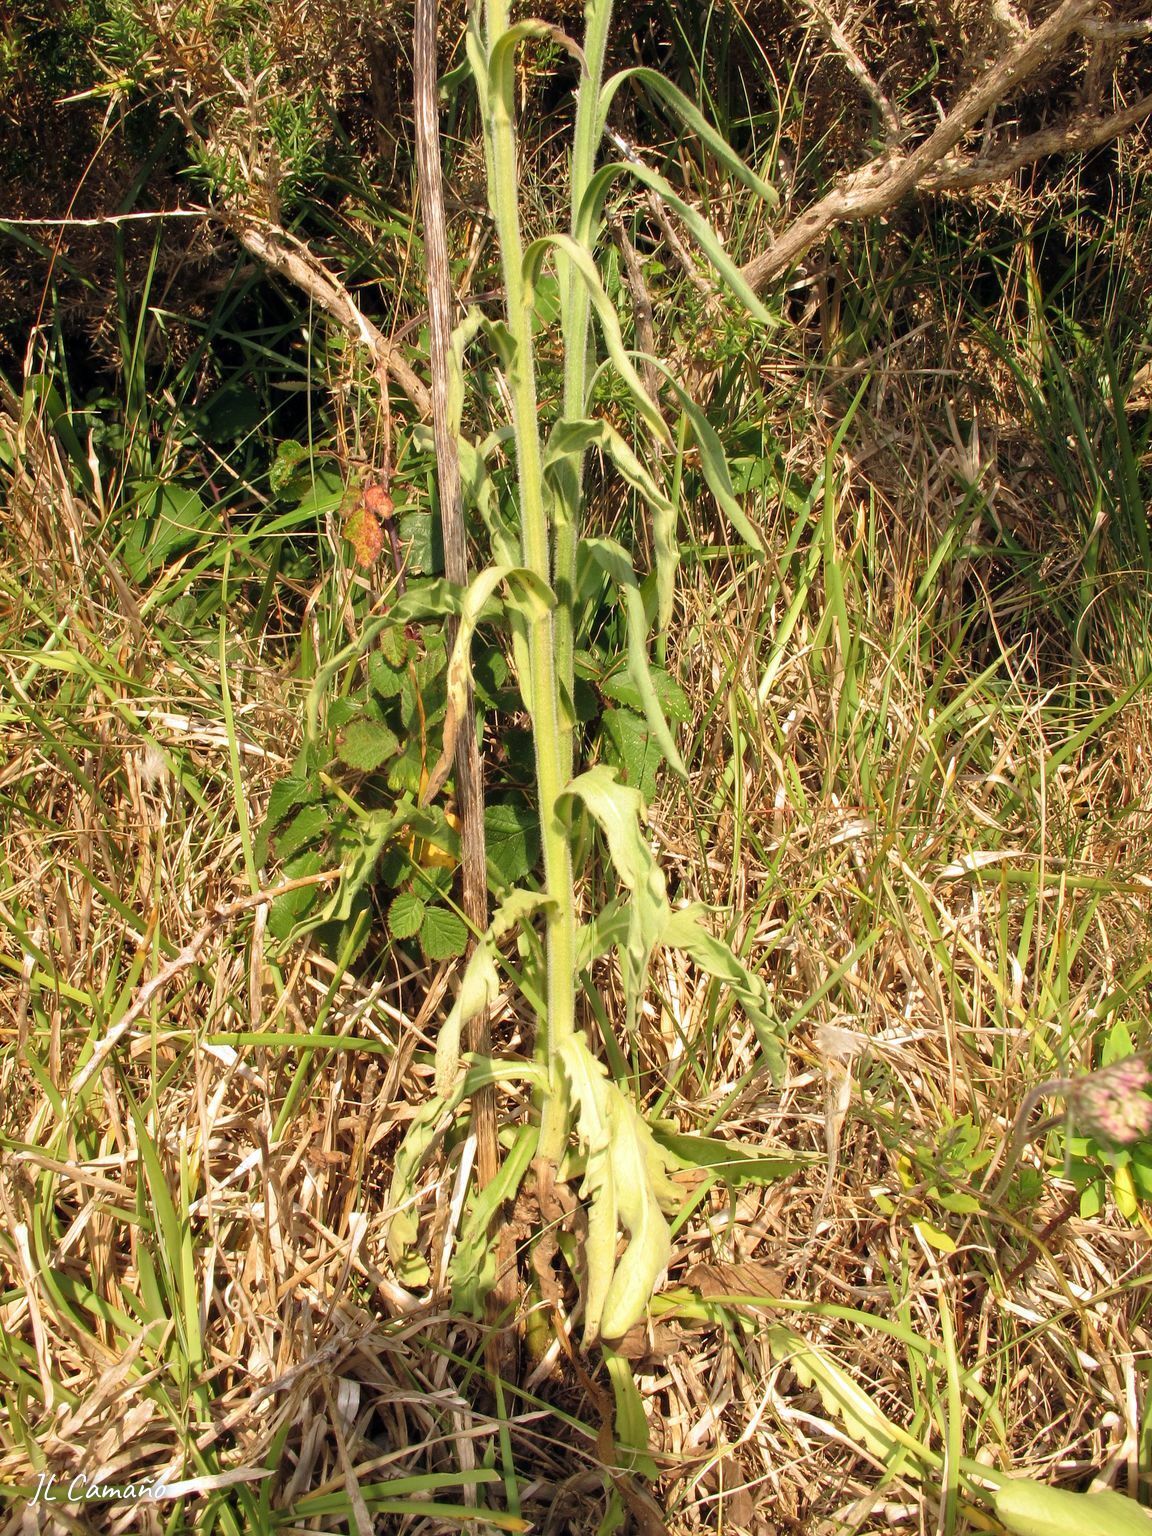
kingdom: Plantae
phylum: Tracheophyta
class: Magnoliopsida
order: Asterales
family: Asteraceae
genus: Erigeron
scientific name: Erigeron primulifolius
